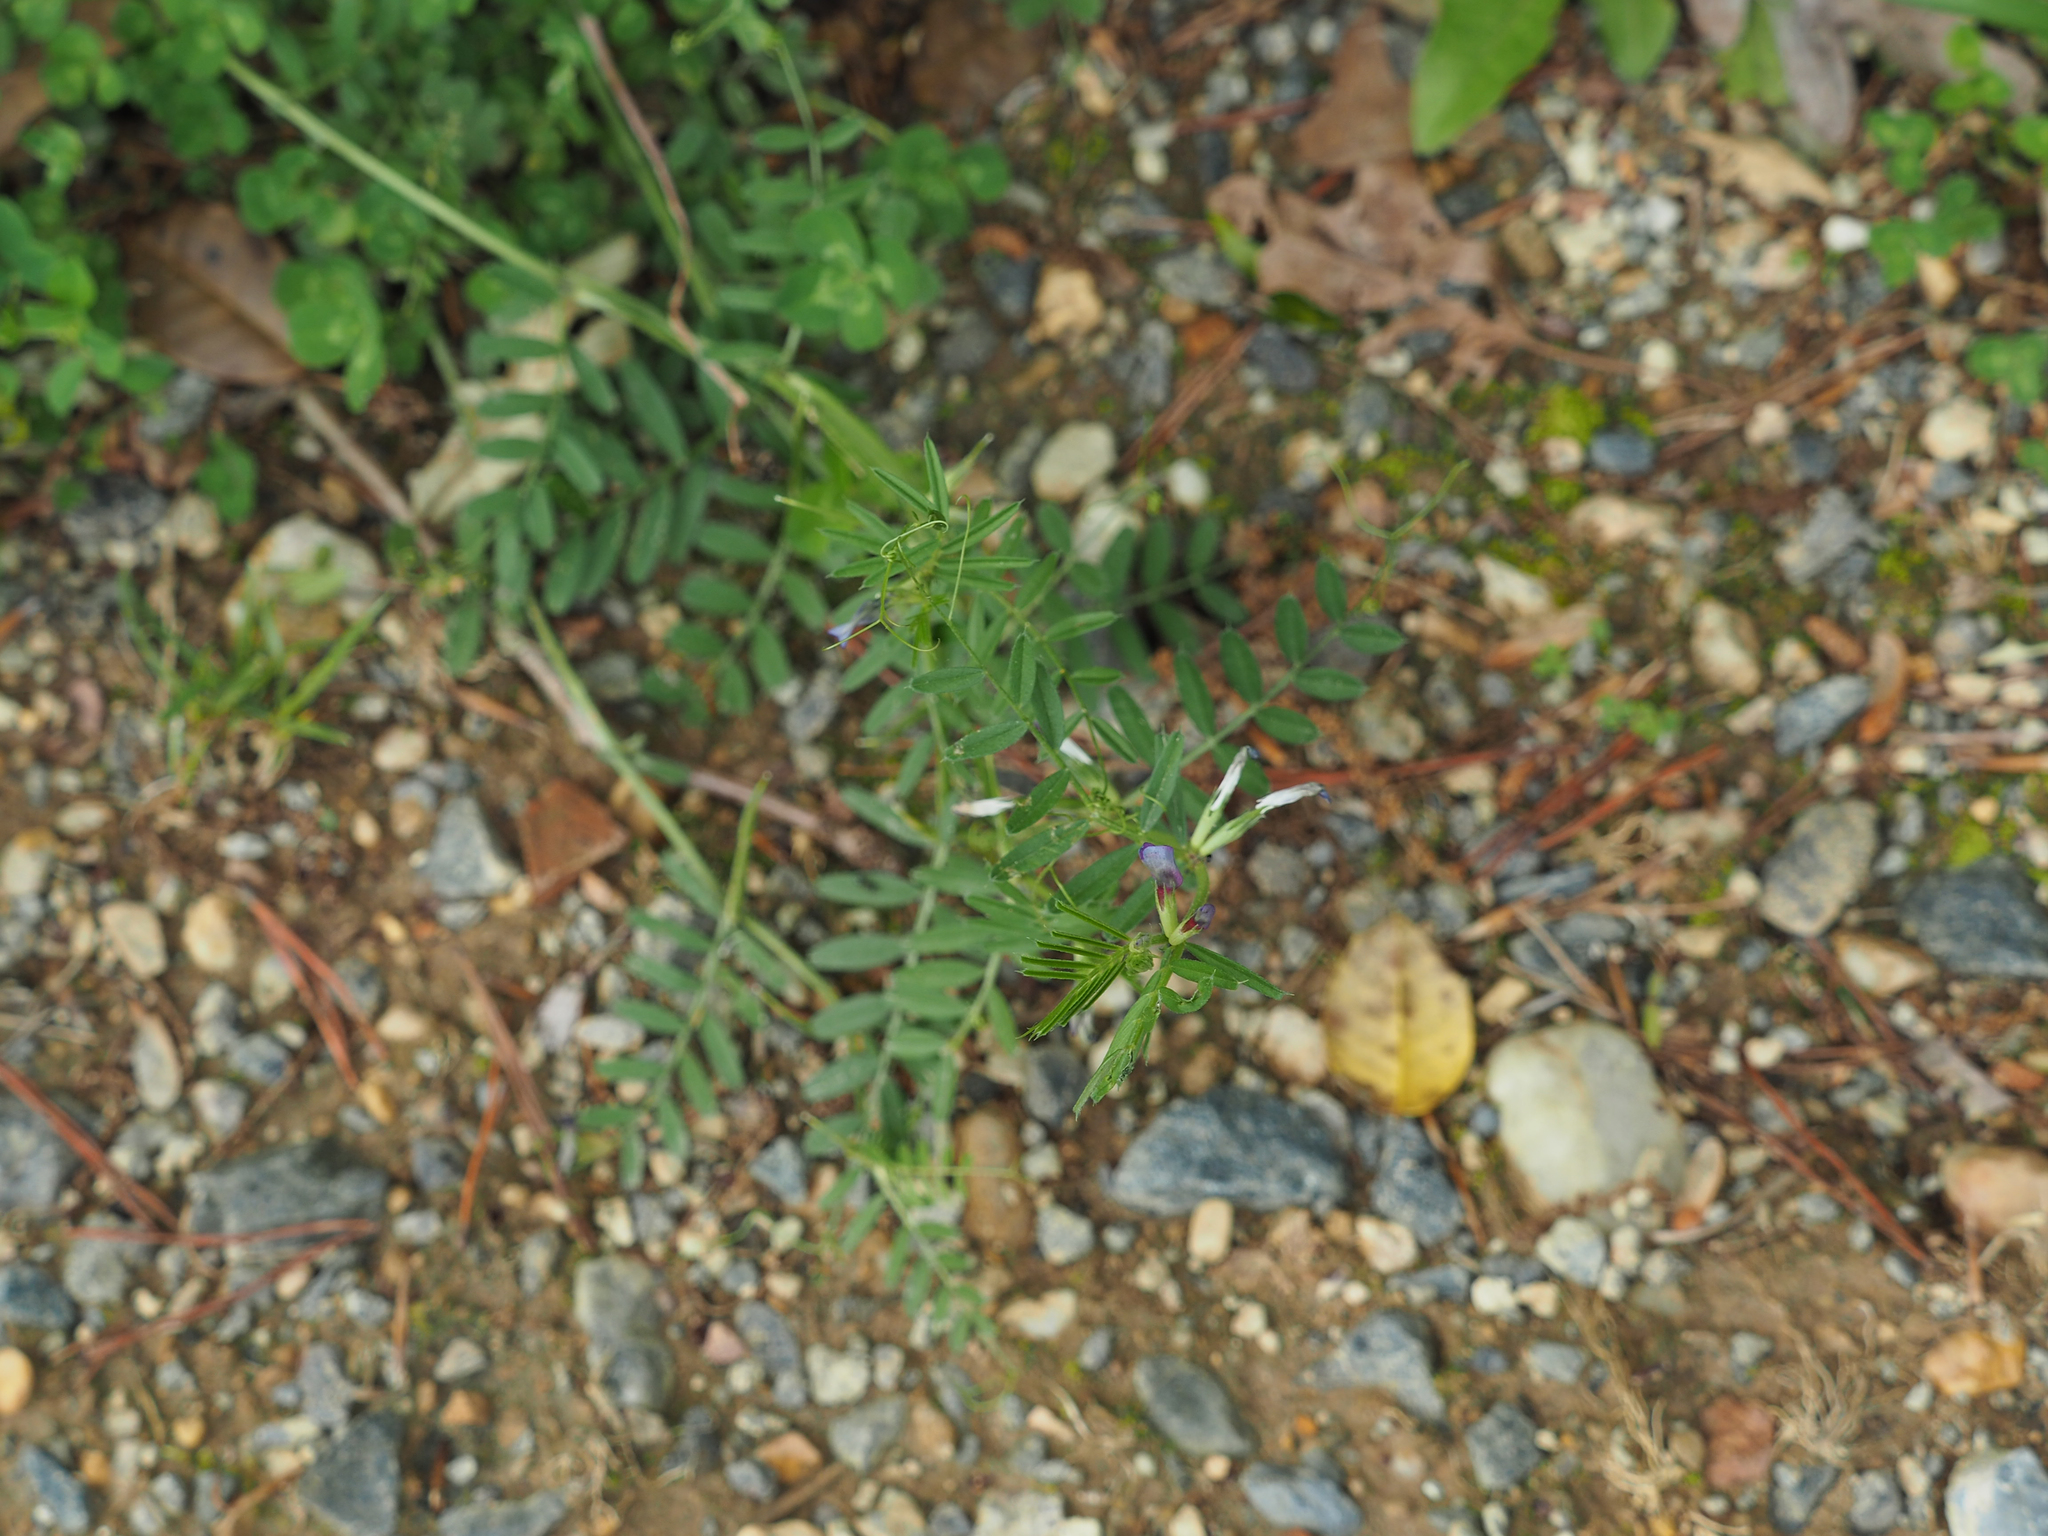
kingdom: Plantae
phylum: Tracheophyta
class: Magnoliopsida
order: Fabales
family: Fabaceae
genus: Vicia
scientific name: Vicia sativa
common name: Garden vetch
